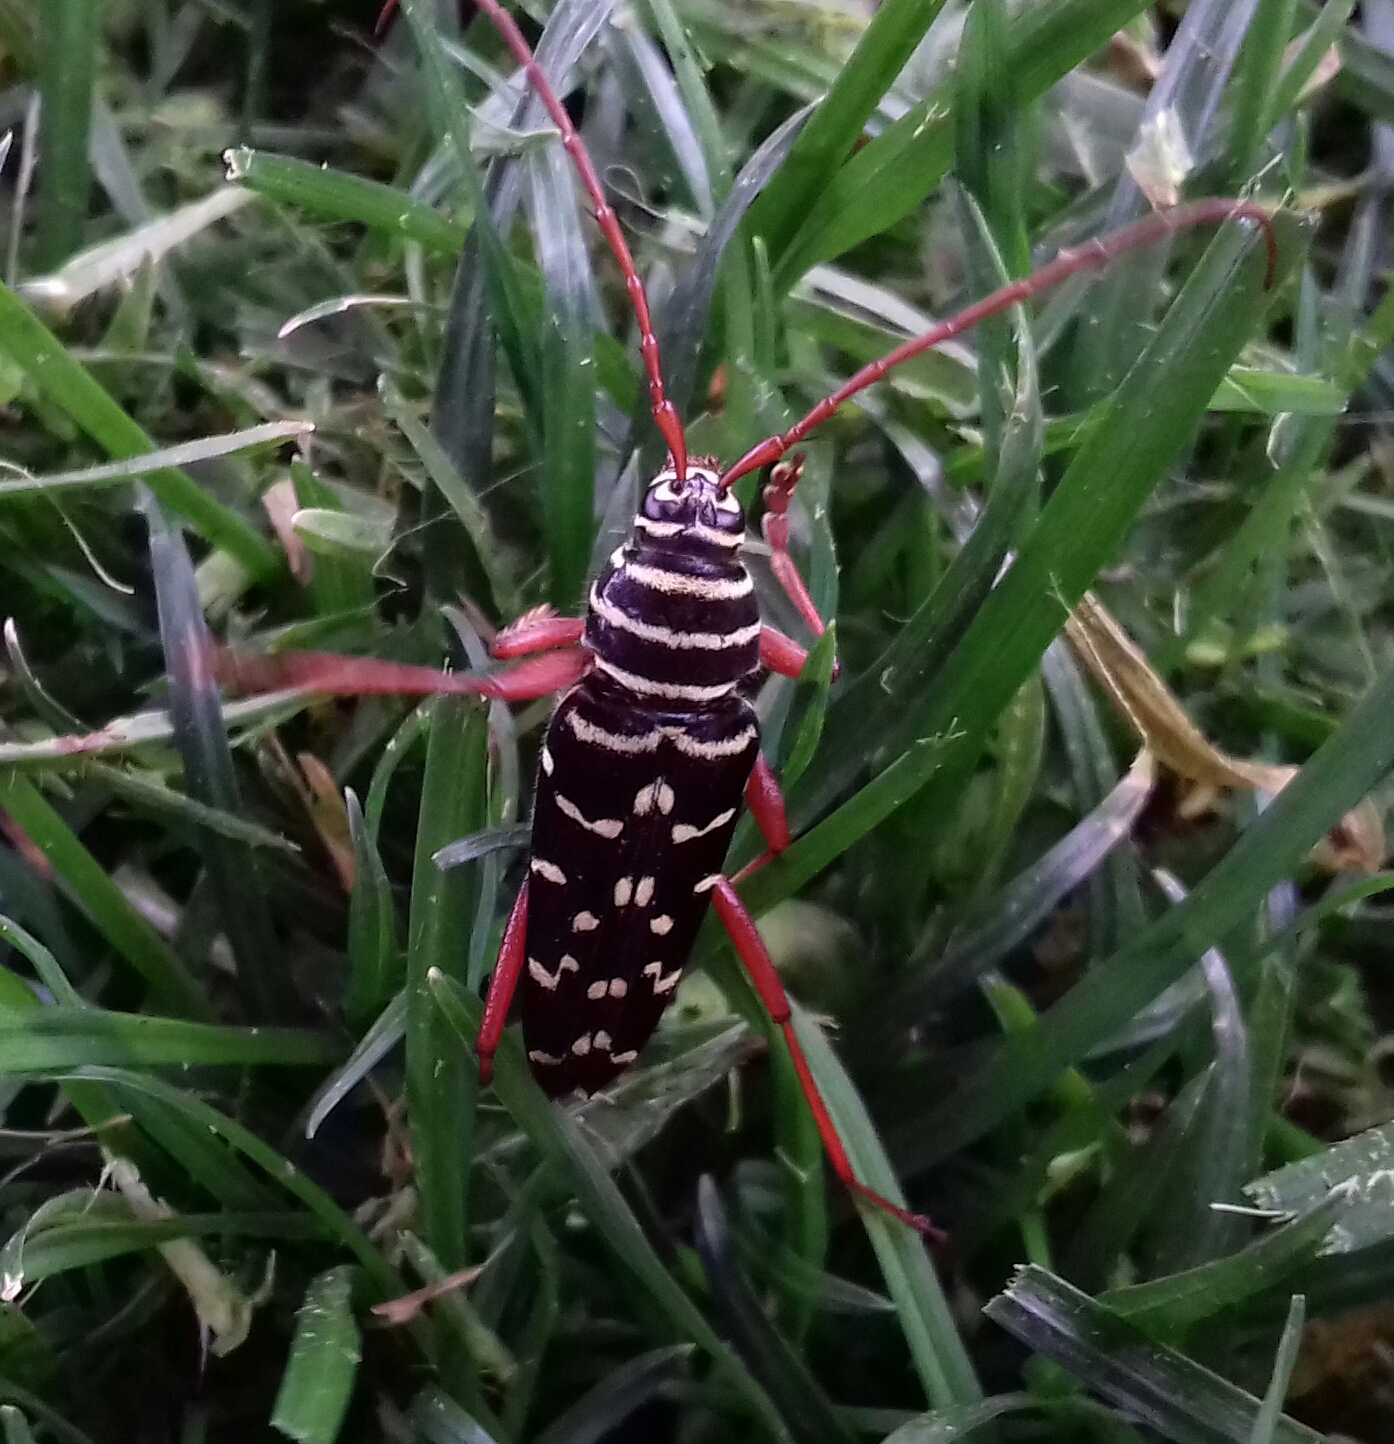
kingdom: Animalia
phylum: Arthropoda
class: Insecta
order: Coleoptera
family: Cerambycidae
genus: Placosternus
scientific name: Placosternus erythropus
